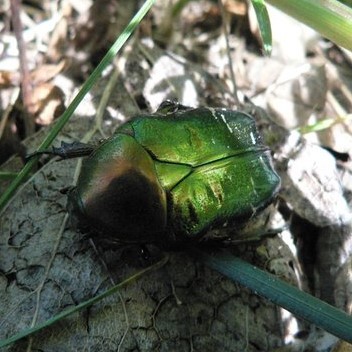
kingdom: Animalia
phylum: Arthropoda
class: Insecta
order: Coleoptera
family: Scarabaeidae
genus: Cetonia
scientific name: Cetonia aurata
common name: Rose chafer
